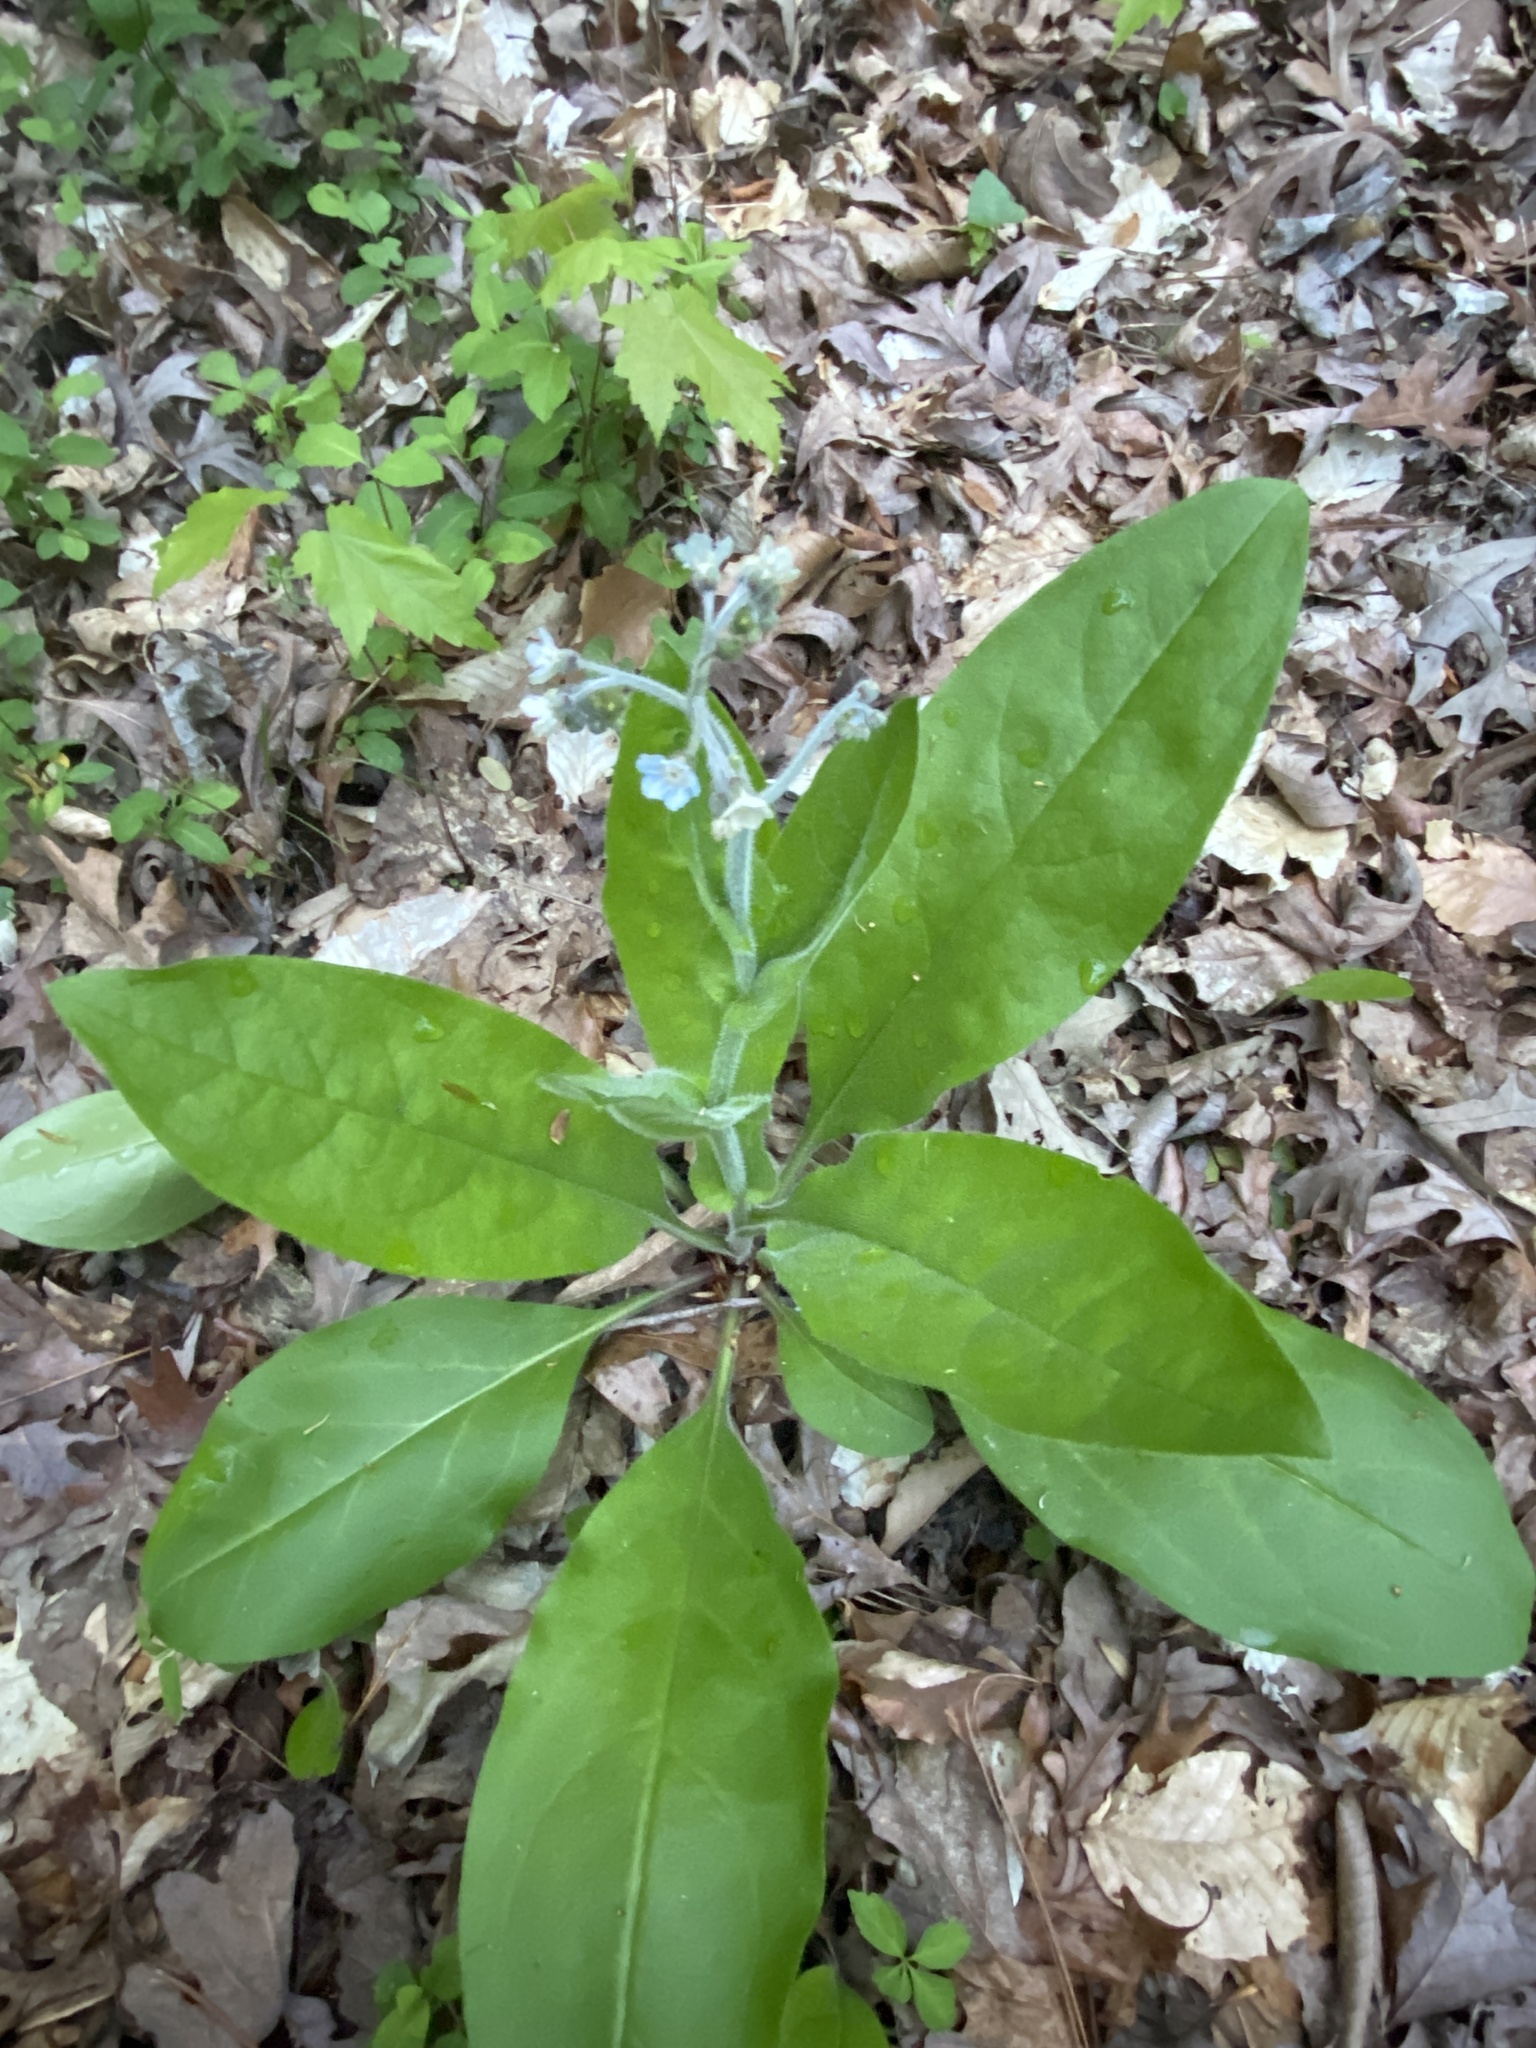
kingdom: Plantae
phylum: Tracheophyta
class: Magnoliopsida
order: Boraginales
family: Boraginaceae
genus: Andersonglossum
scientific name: Andersonglossum virginianum
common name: Wild comfrey
